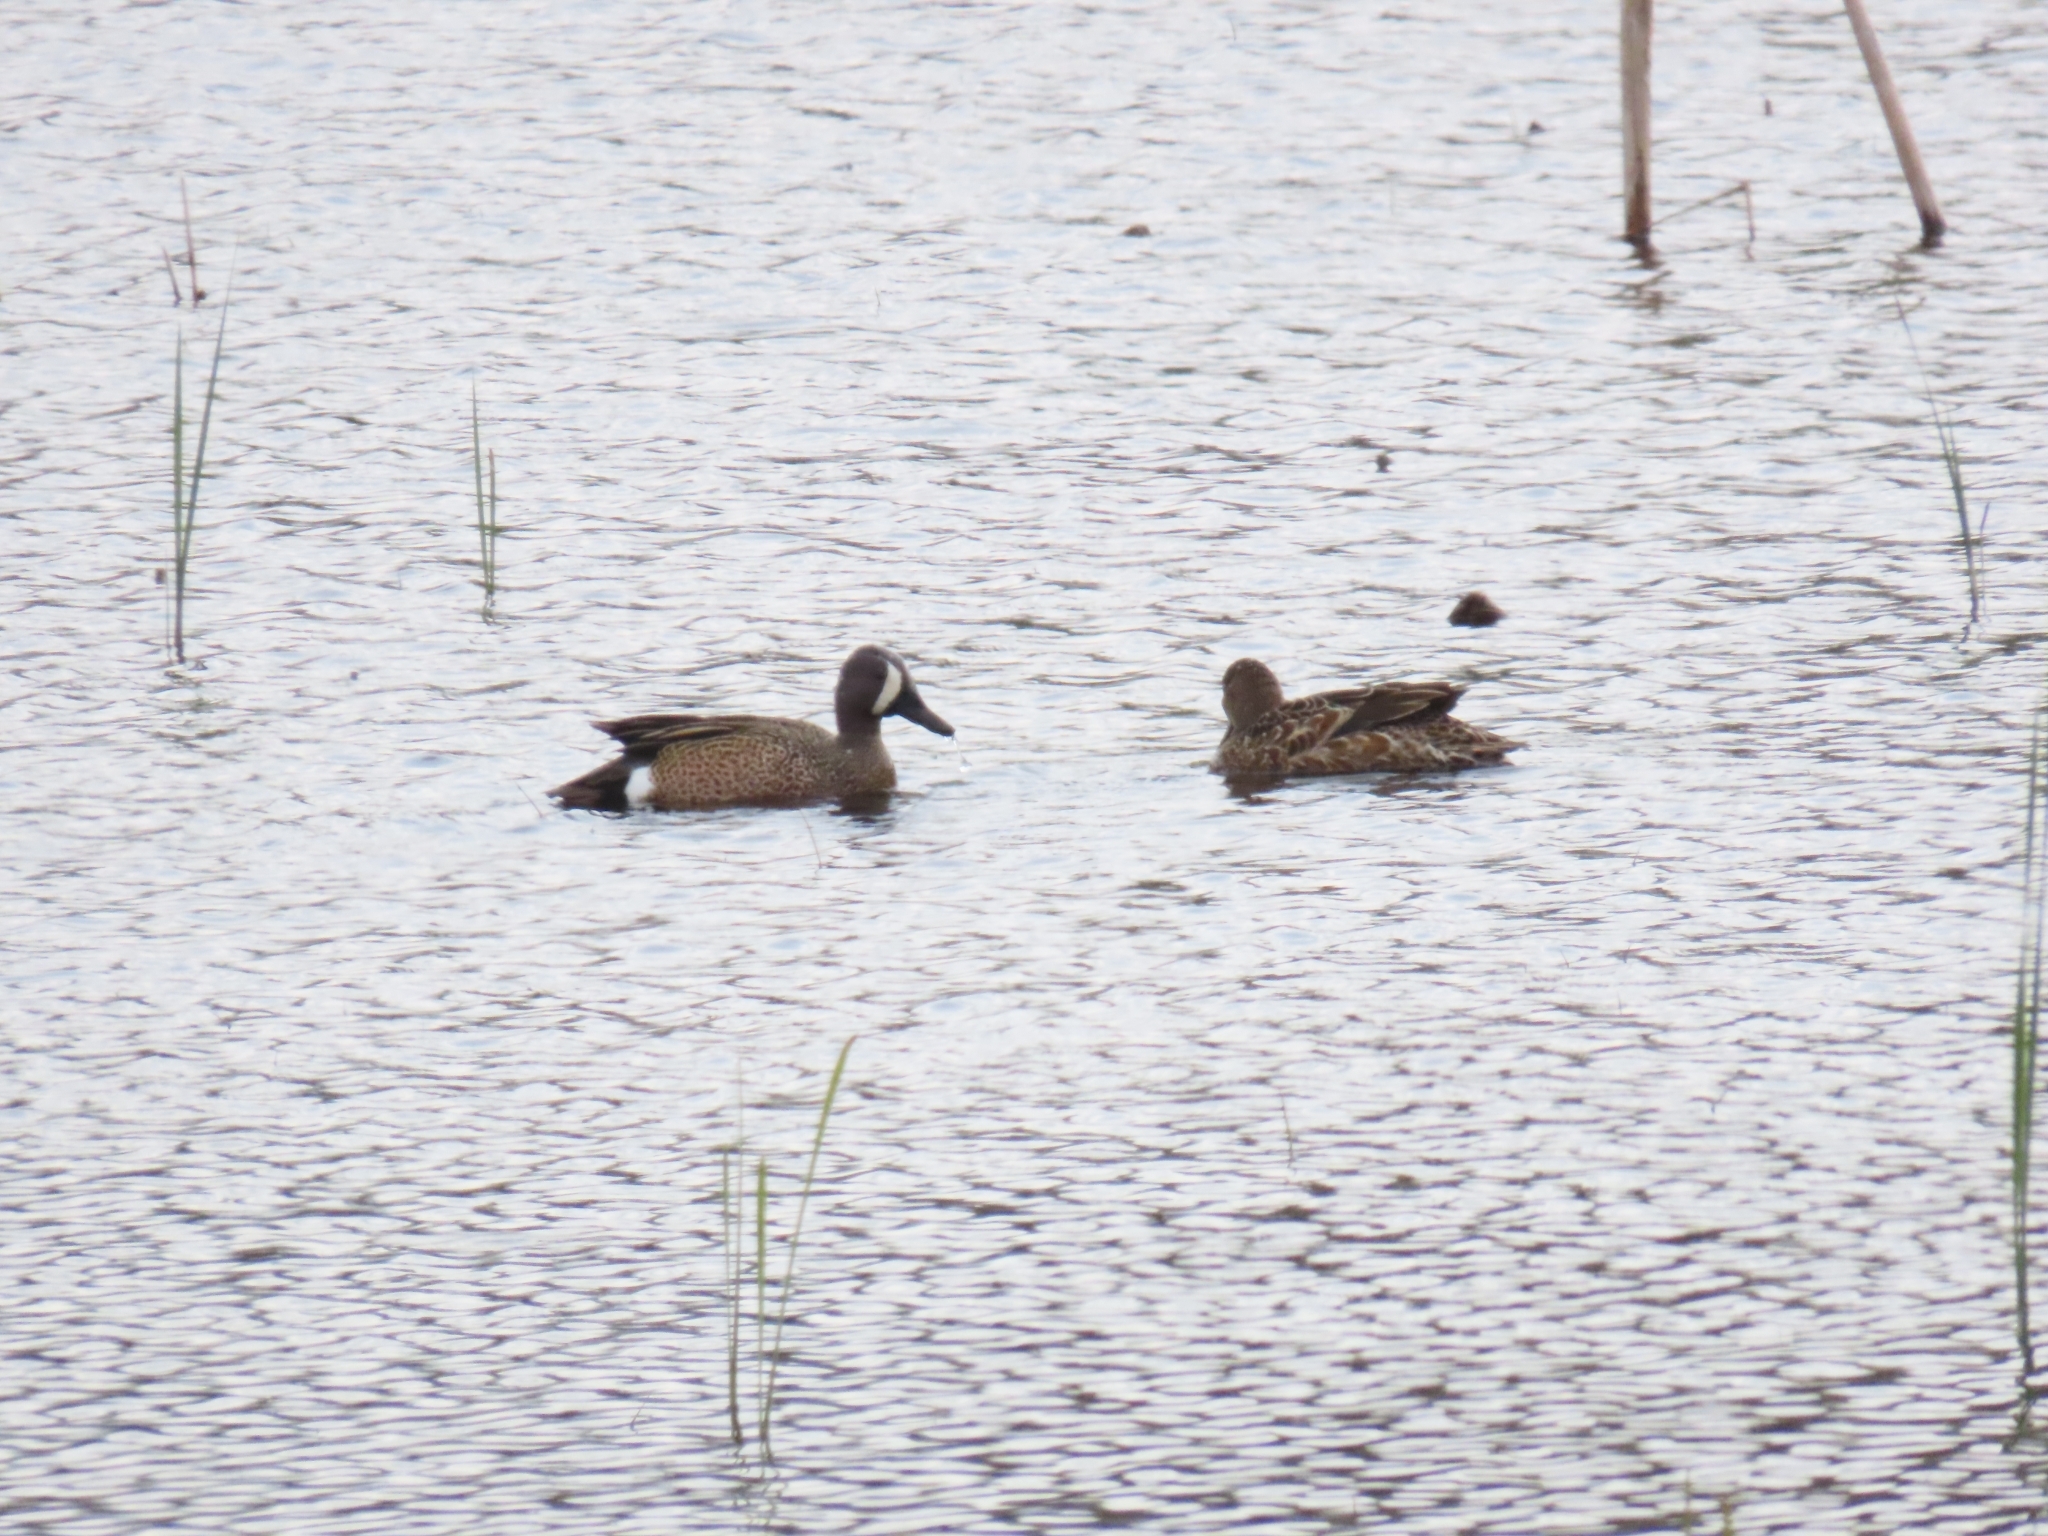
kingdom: Animalia
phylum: Chordata
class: Aves
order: Anseriformes
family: Anatidae
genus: Spatula
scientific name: Spatula discors
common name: Blue-winged teal
